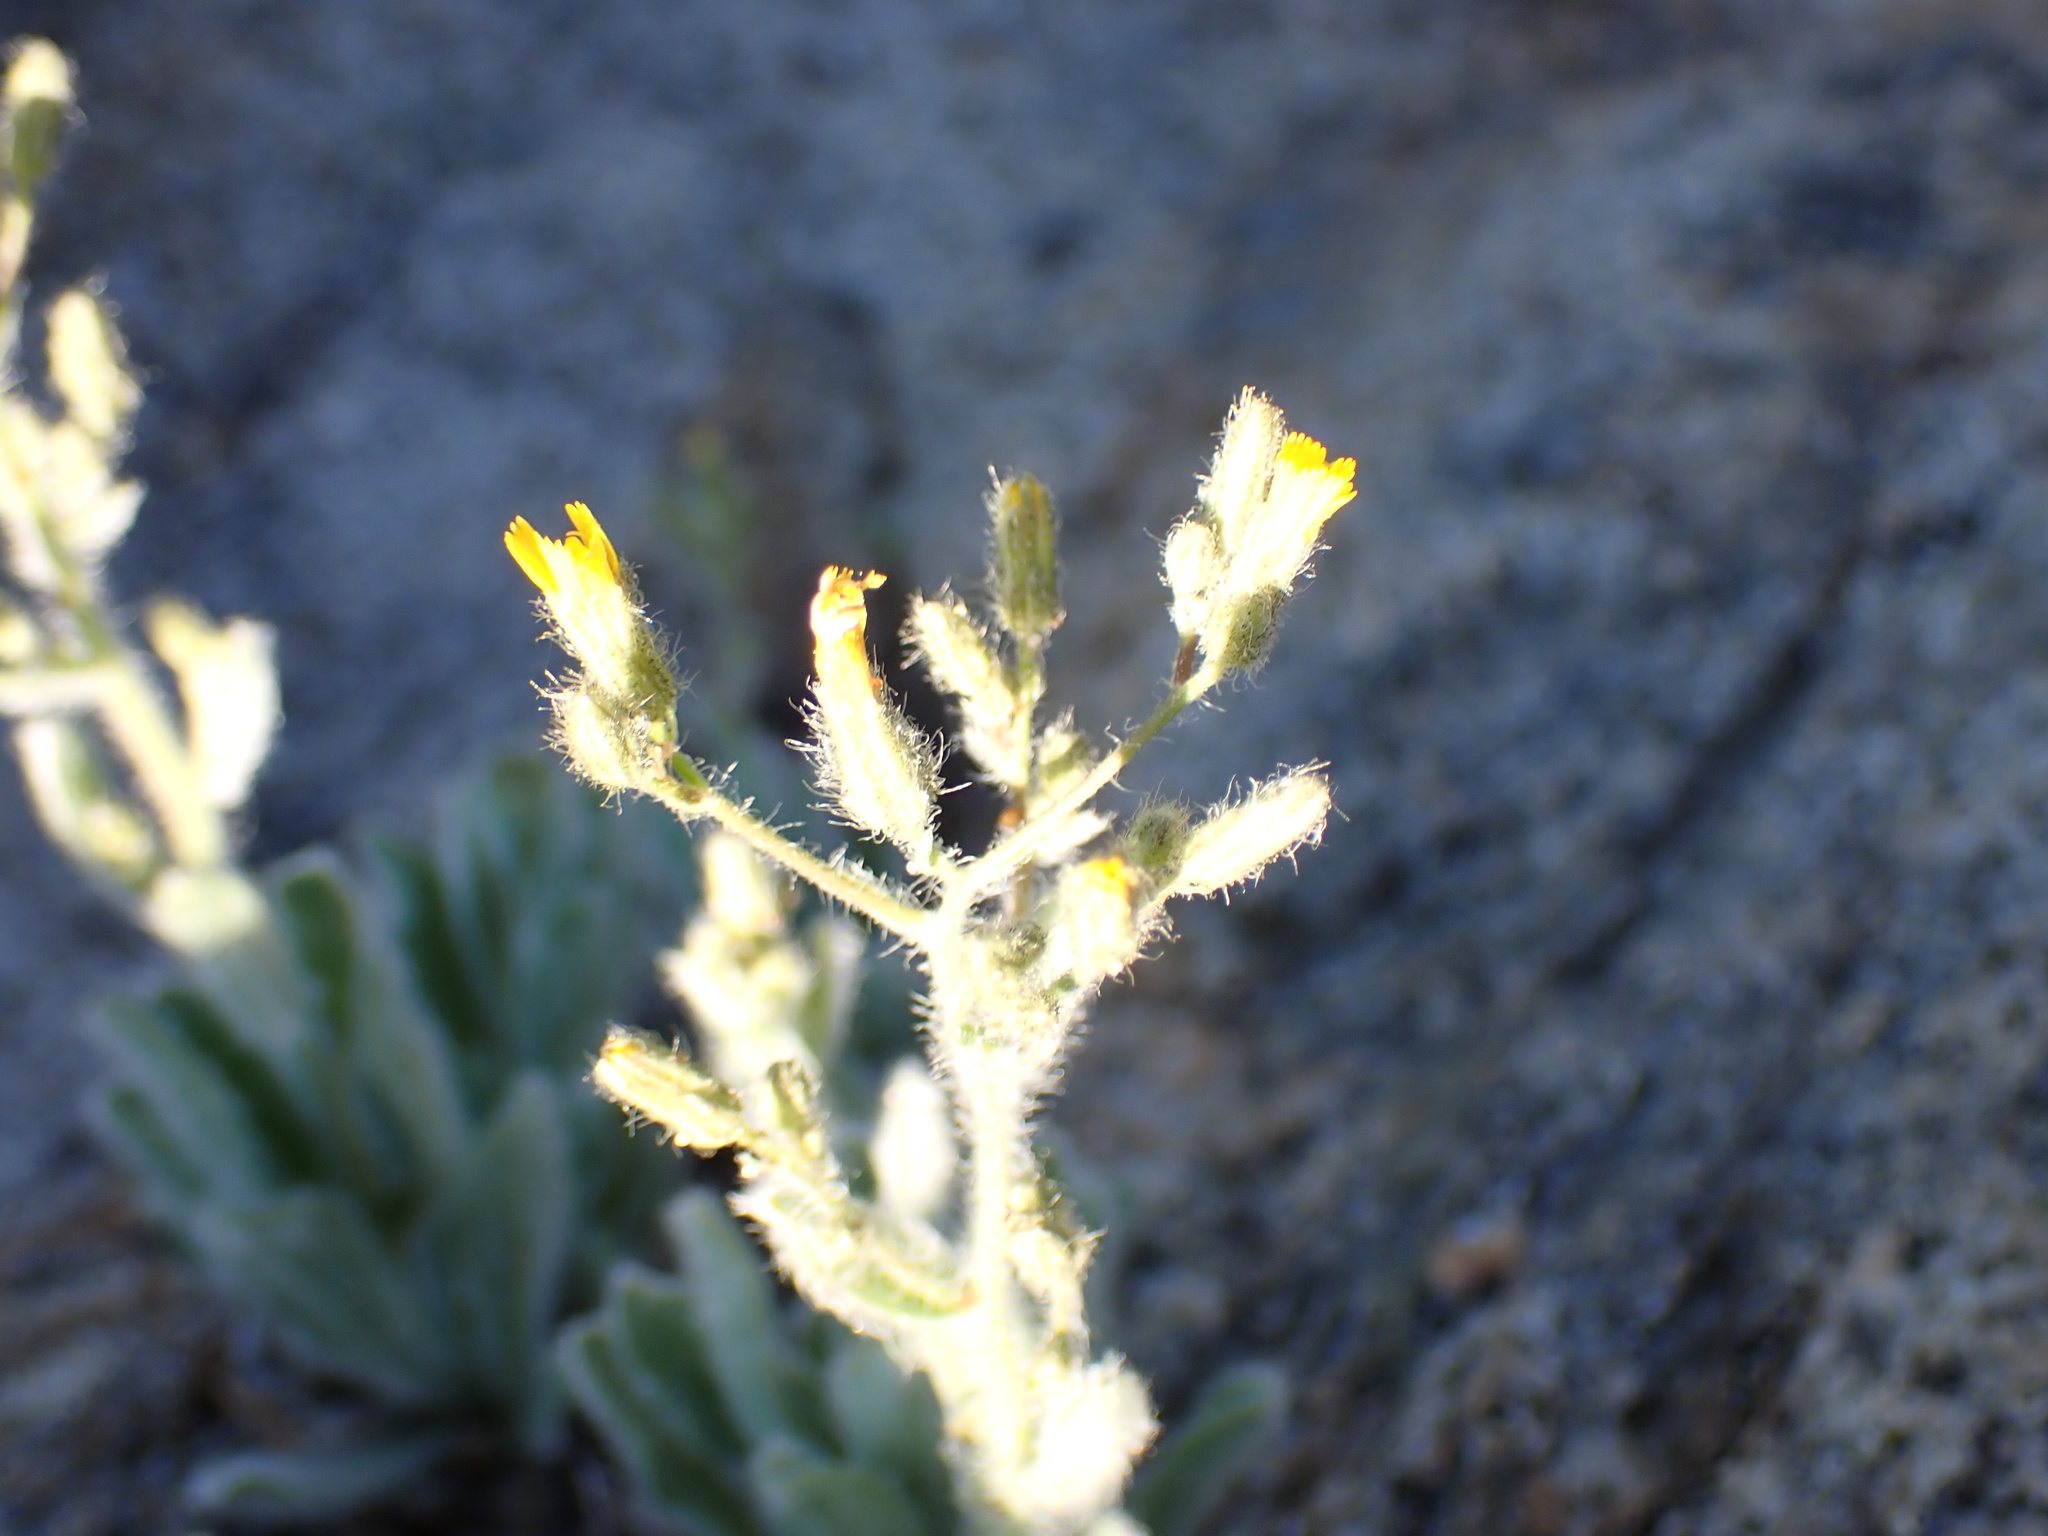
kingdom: Plantae
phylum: Tracheophyta
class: Magnoliopsida
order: Asterales
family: Asteraceae
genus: Hieracium
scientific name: Hieracium horridum
